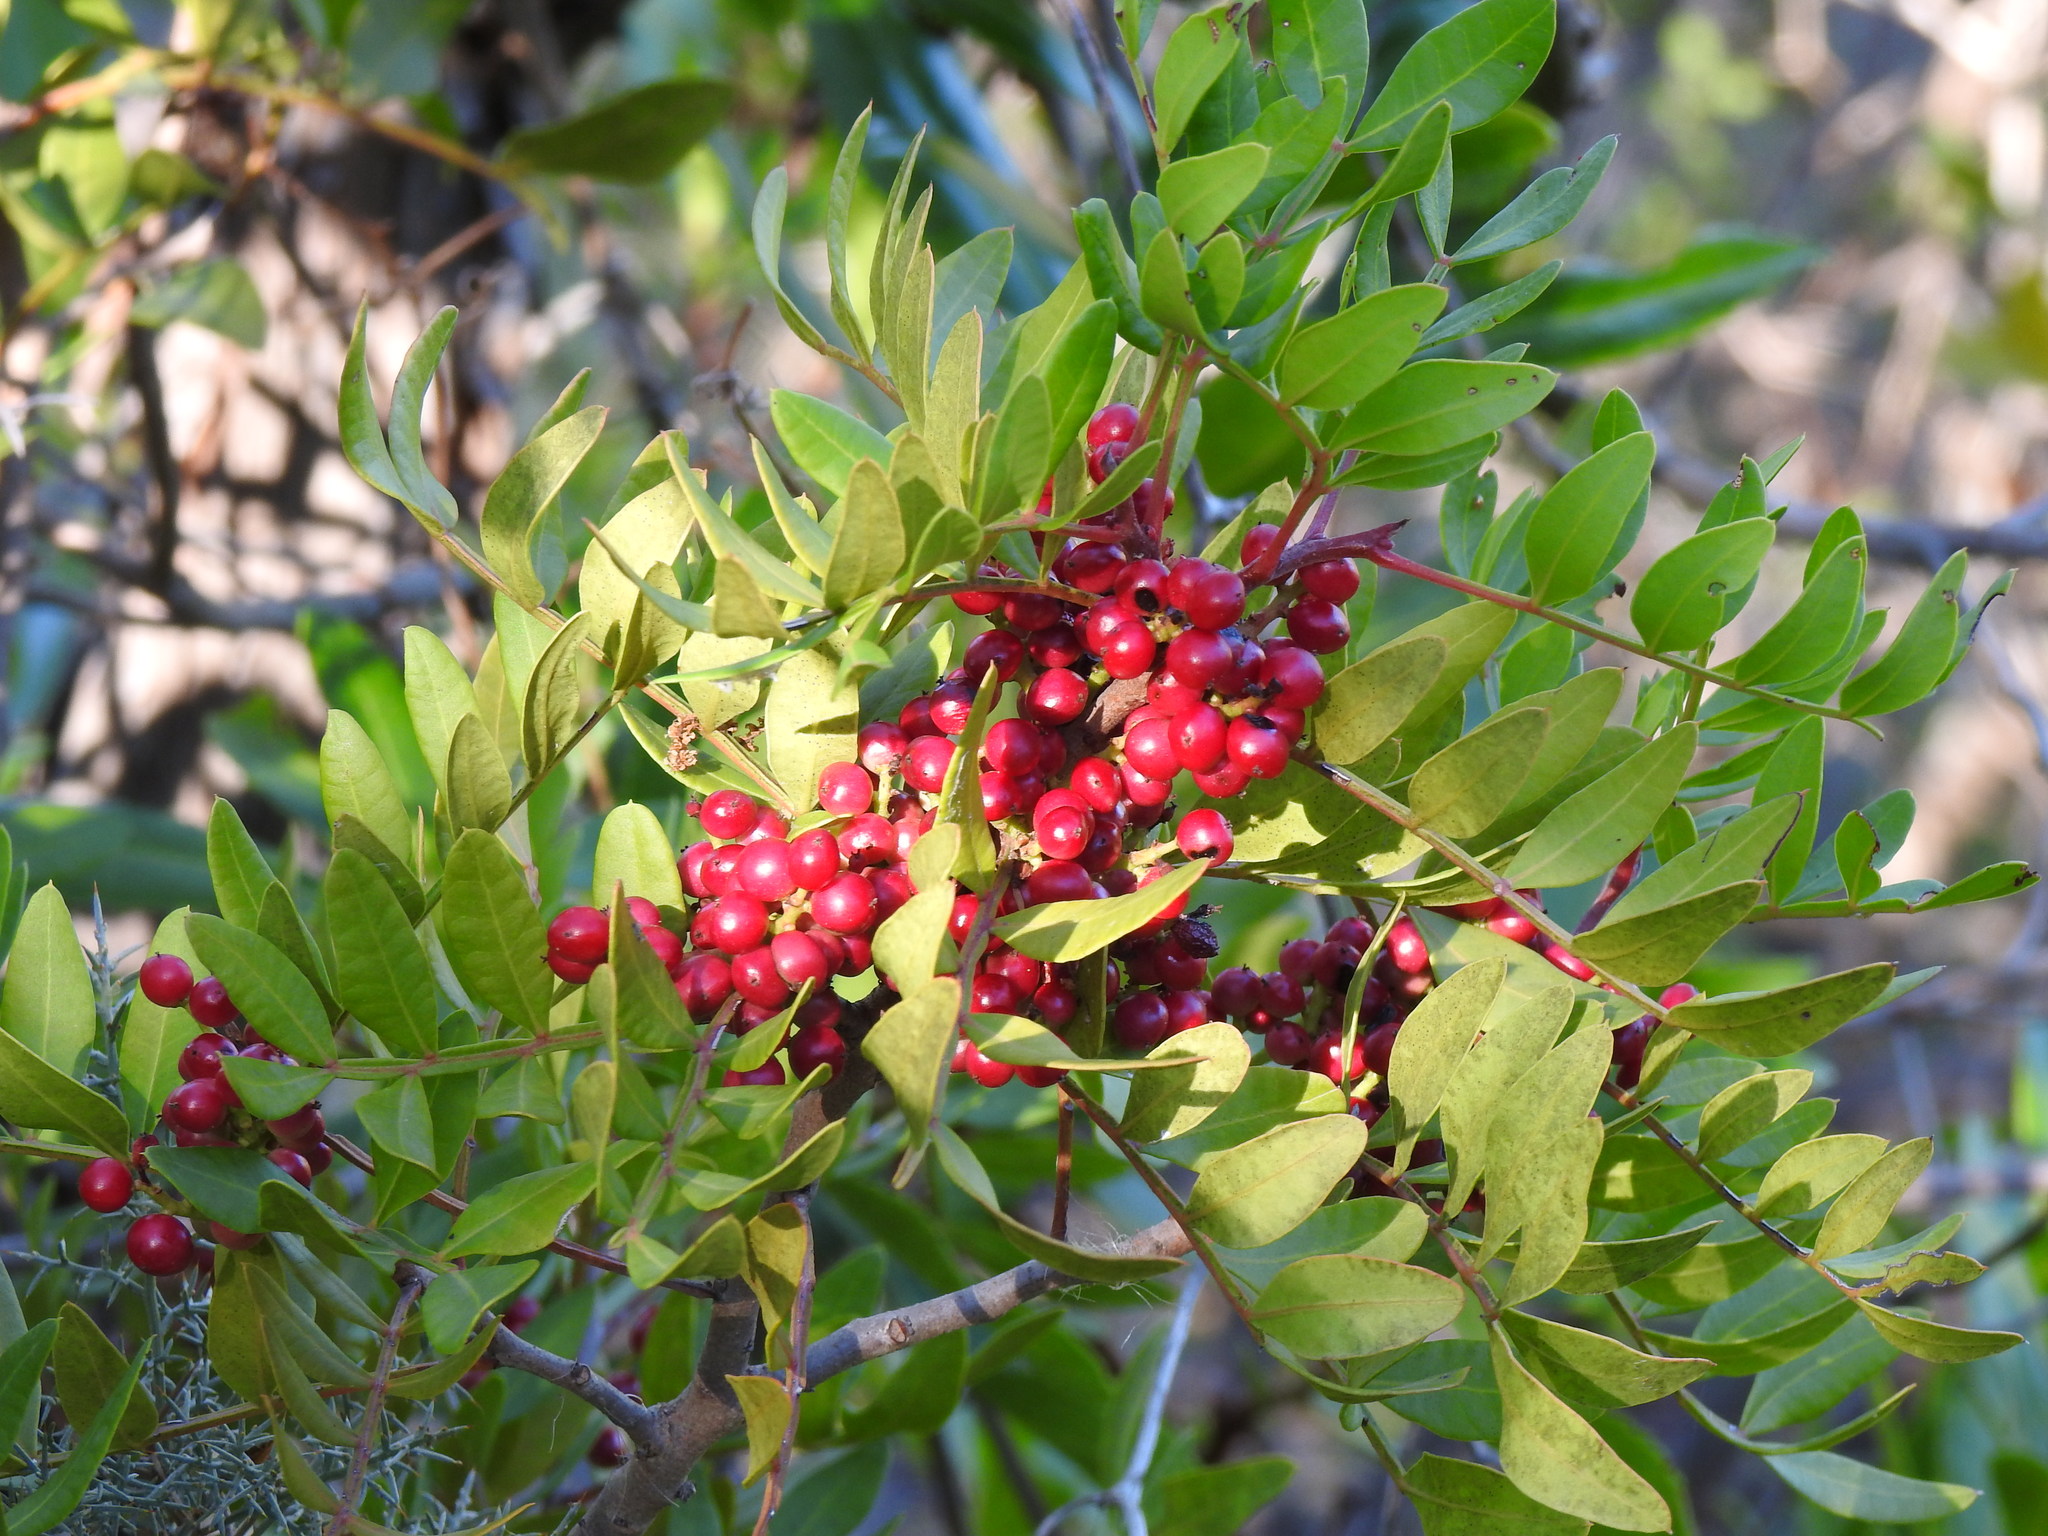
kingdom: Plantae
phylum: Tracheophyta
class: Magnoliopsida
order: Sapindales
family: Anacardiaceae
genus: Pistacia
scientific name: Pistacia lentiscus
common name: Lentisk
